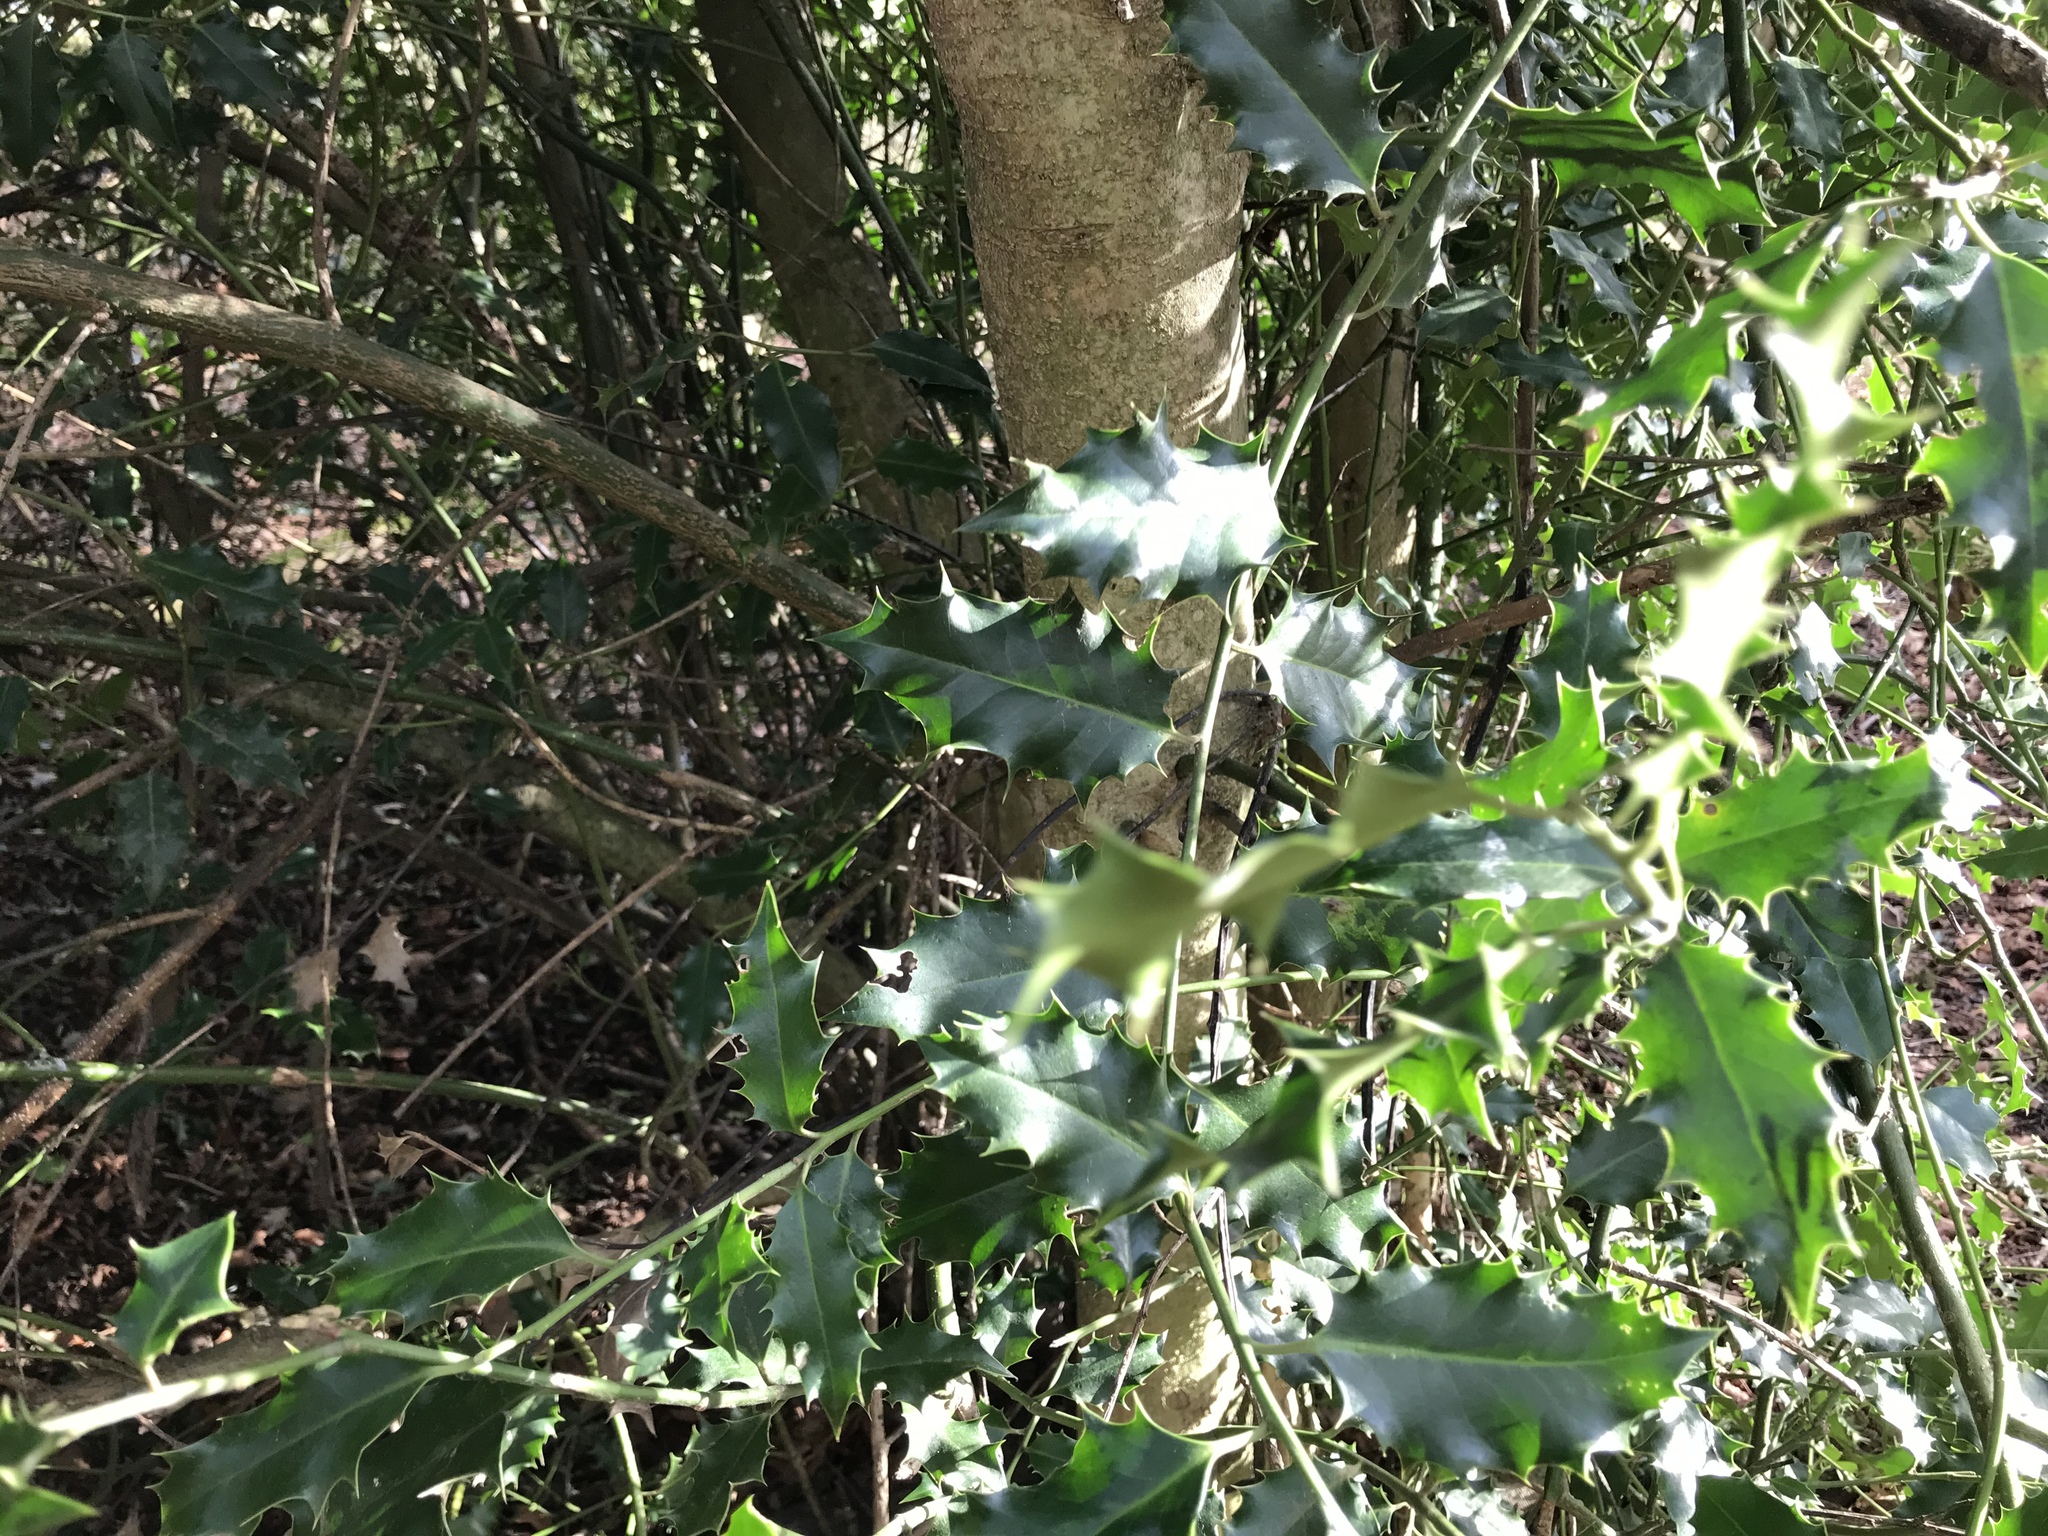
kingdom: Plantae
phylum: Tracheophyta
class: Magnoliopsida
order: Aquifoliales
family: Aquifoliaceae
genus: Ilex
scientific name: Ilex aquifolium
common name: English holly
